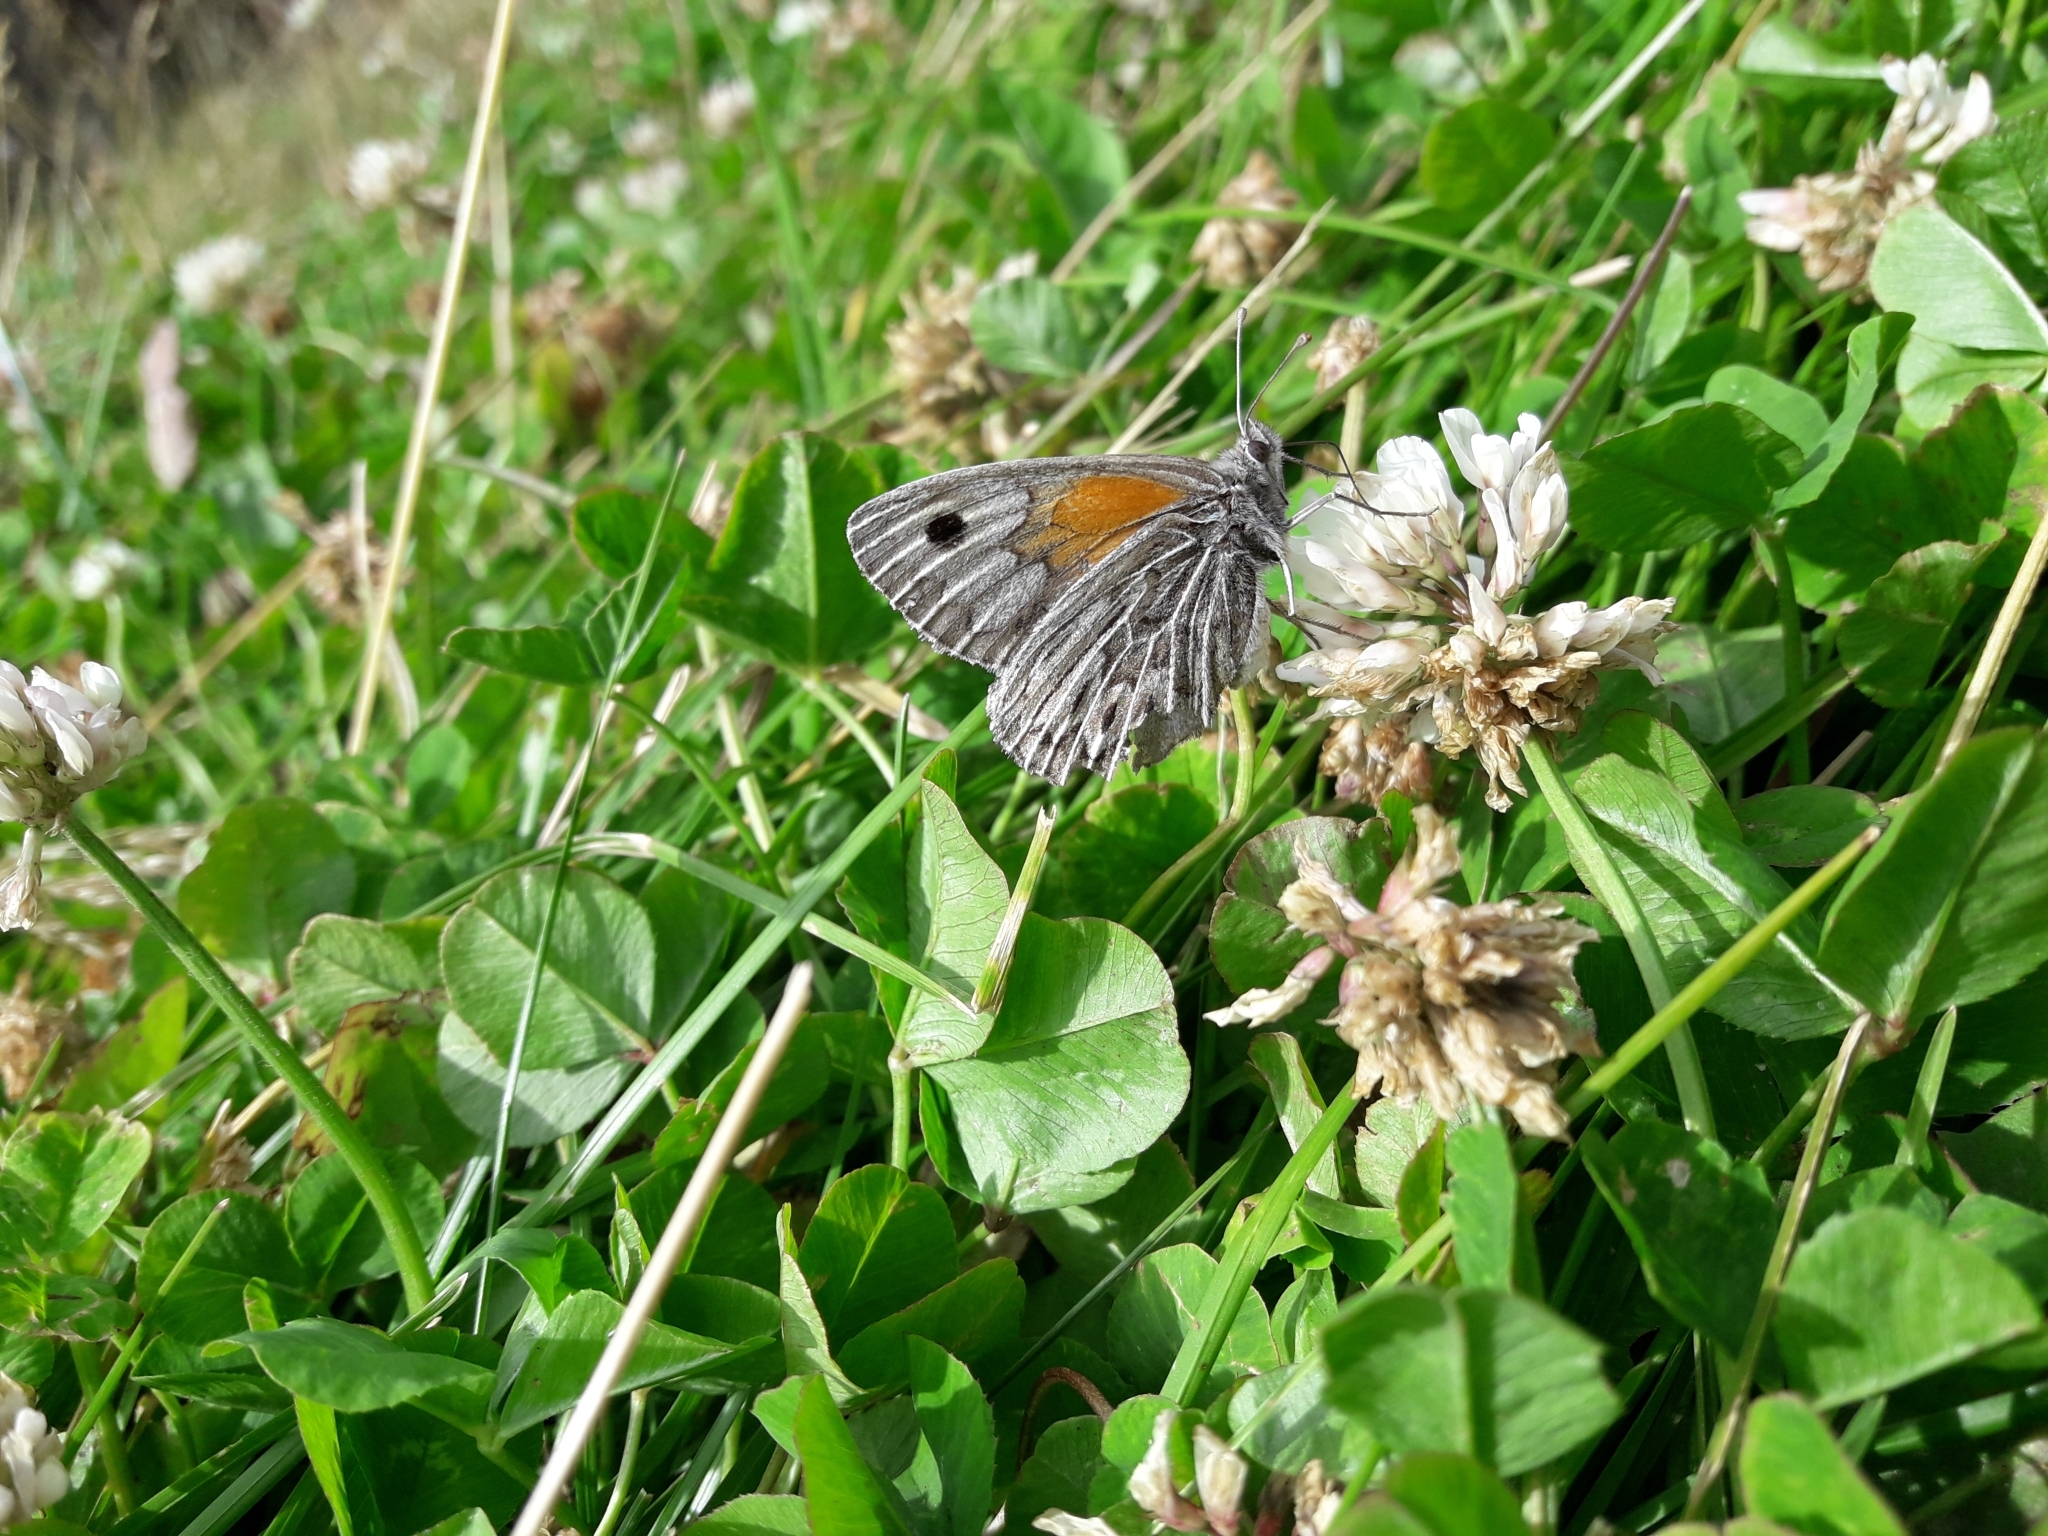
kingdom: Animalia
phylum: Arthropoda
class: Insecta
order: Lepidoptera
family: Nymphalidae
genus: Argyrophorus
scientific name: Argyrophorus argenteus
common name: Silver satyr
